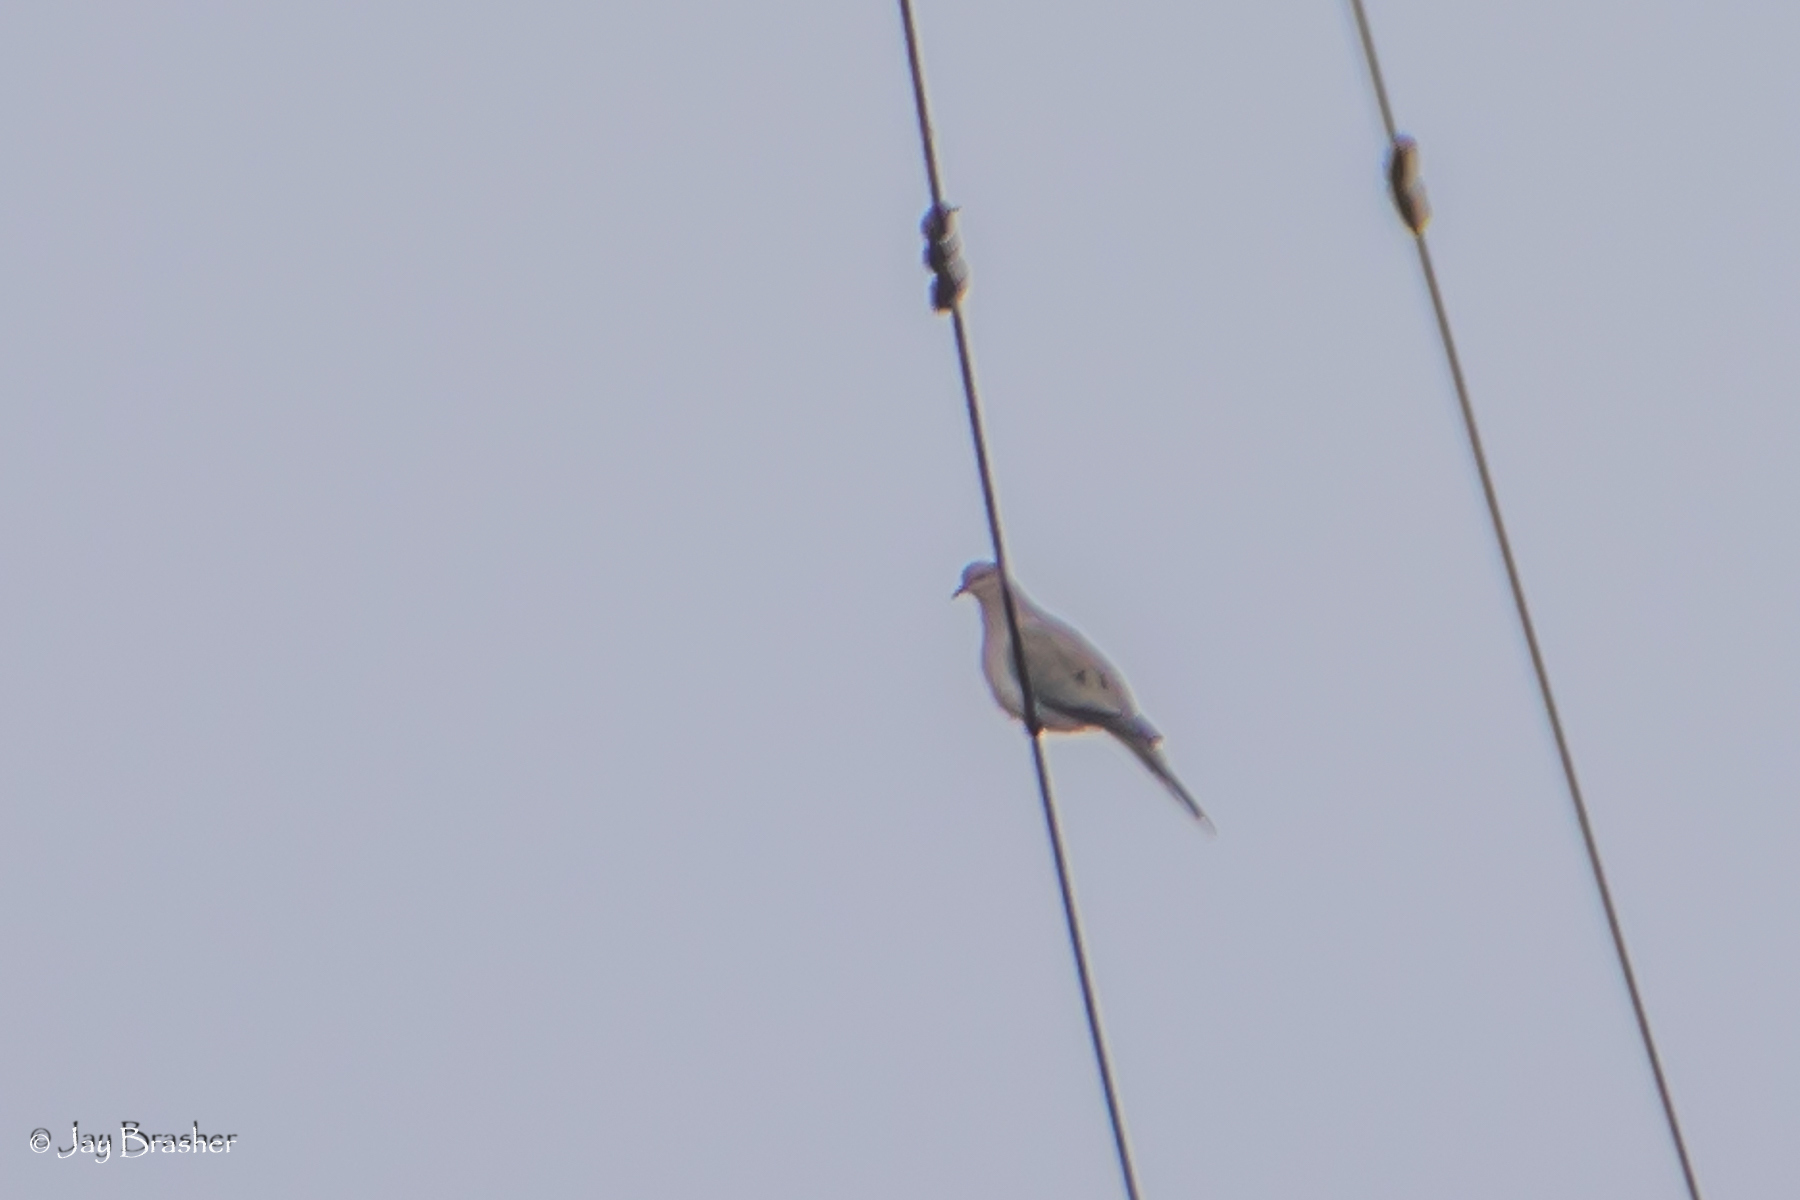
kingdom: Animalia
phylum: Chordata
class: Aves
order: Columbiformes
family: Columbidae
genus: Zenaida
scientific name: Zenaida macroura
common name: Mourning dove
